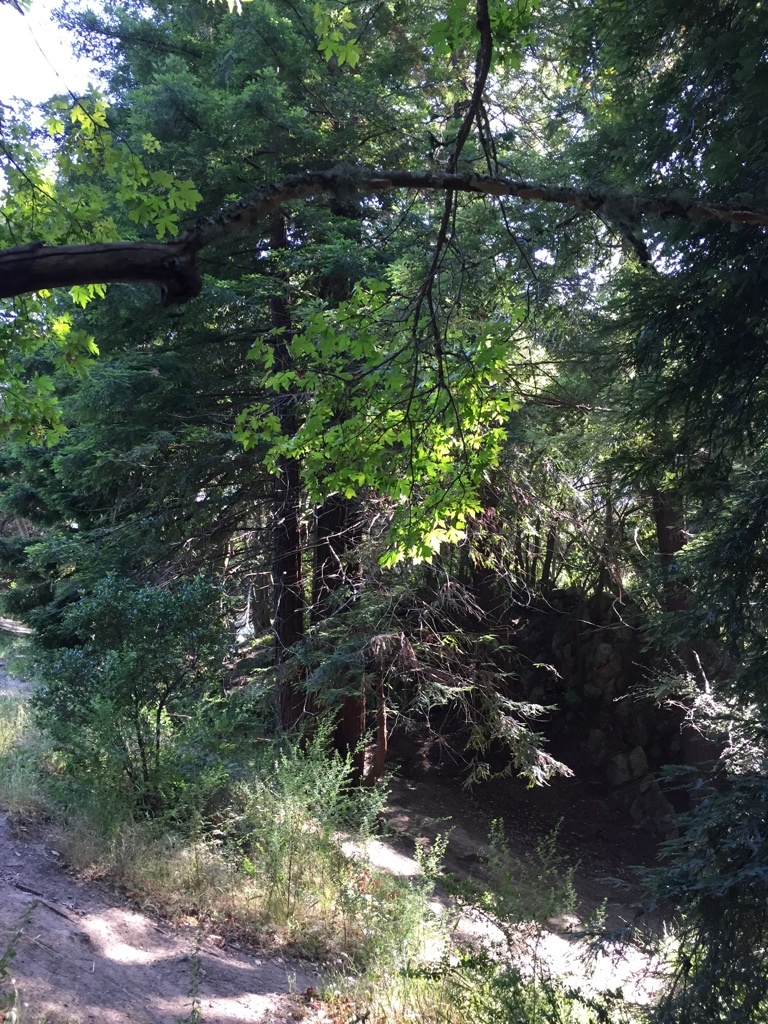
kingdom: Plantae
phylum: Tracheophyta
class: Pinopsida
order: Pinales
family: Cupressaceae
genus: Sequoia
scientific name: Sequoia sempervirens
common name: Coast redwood
